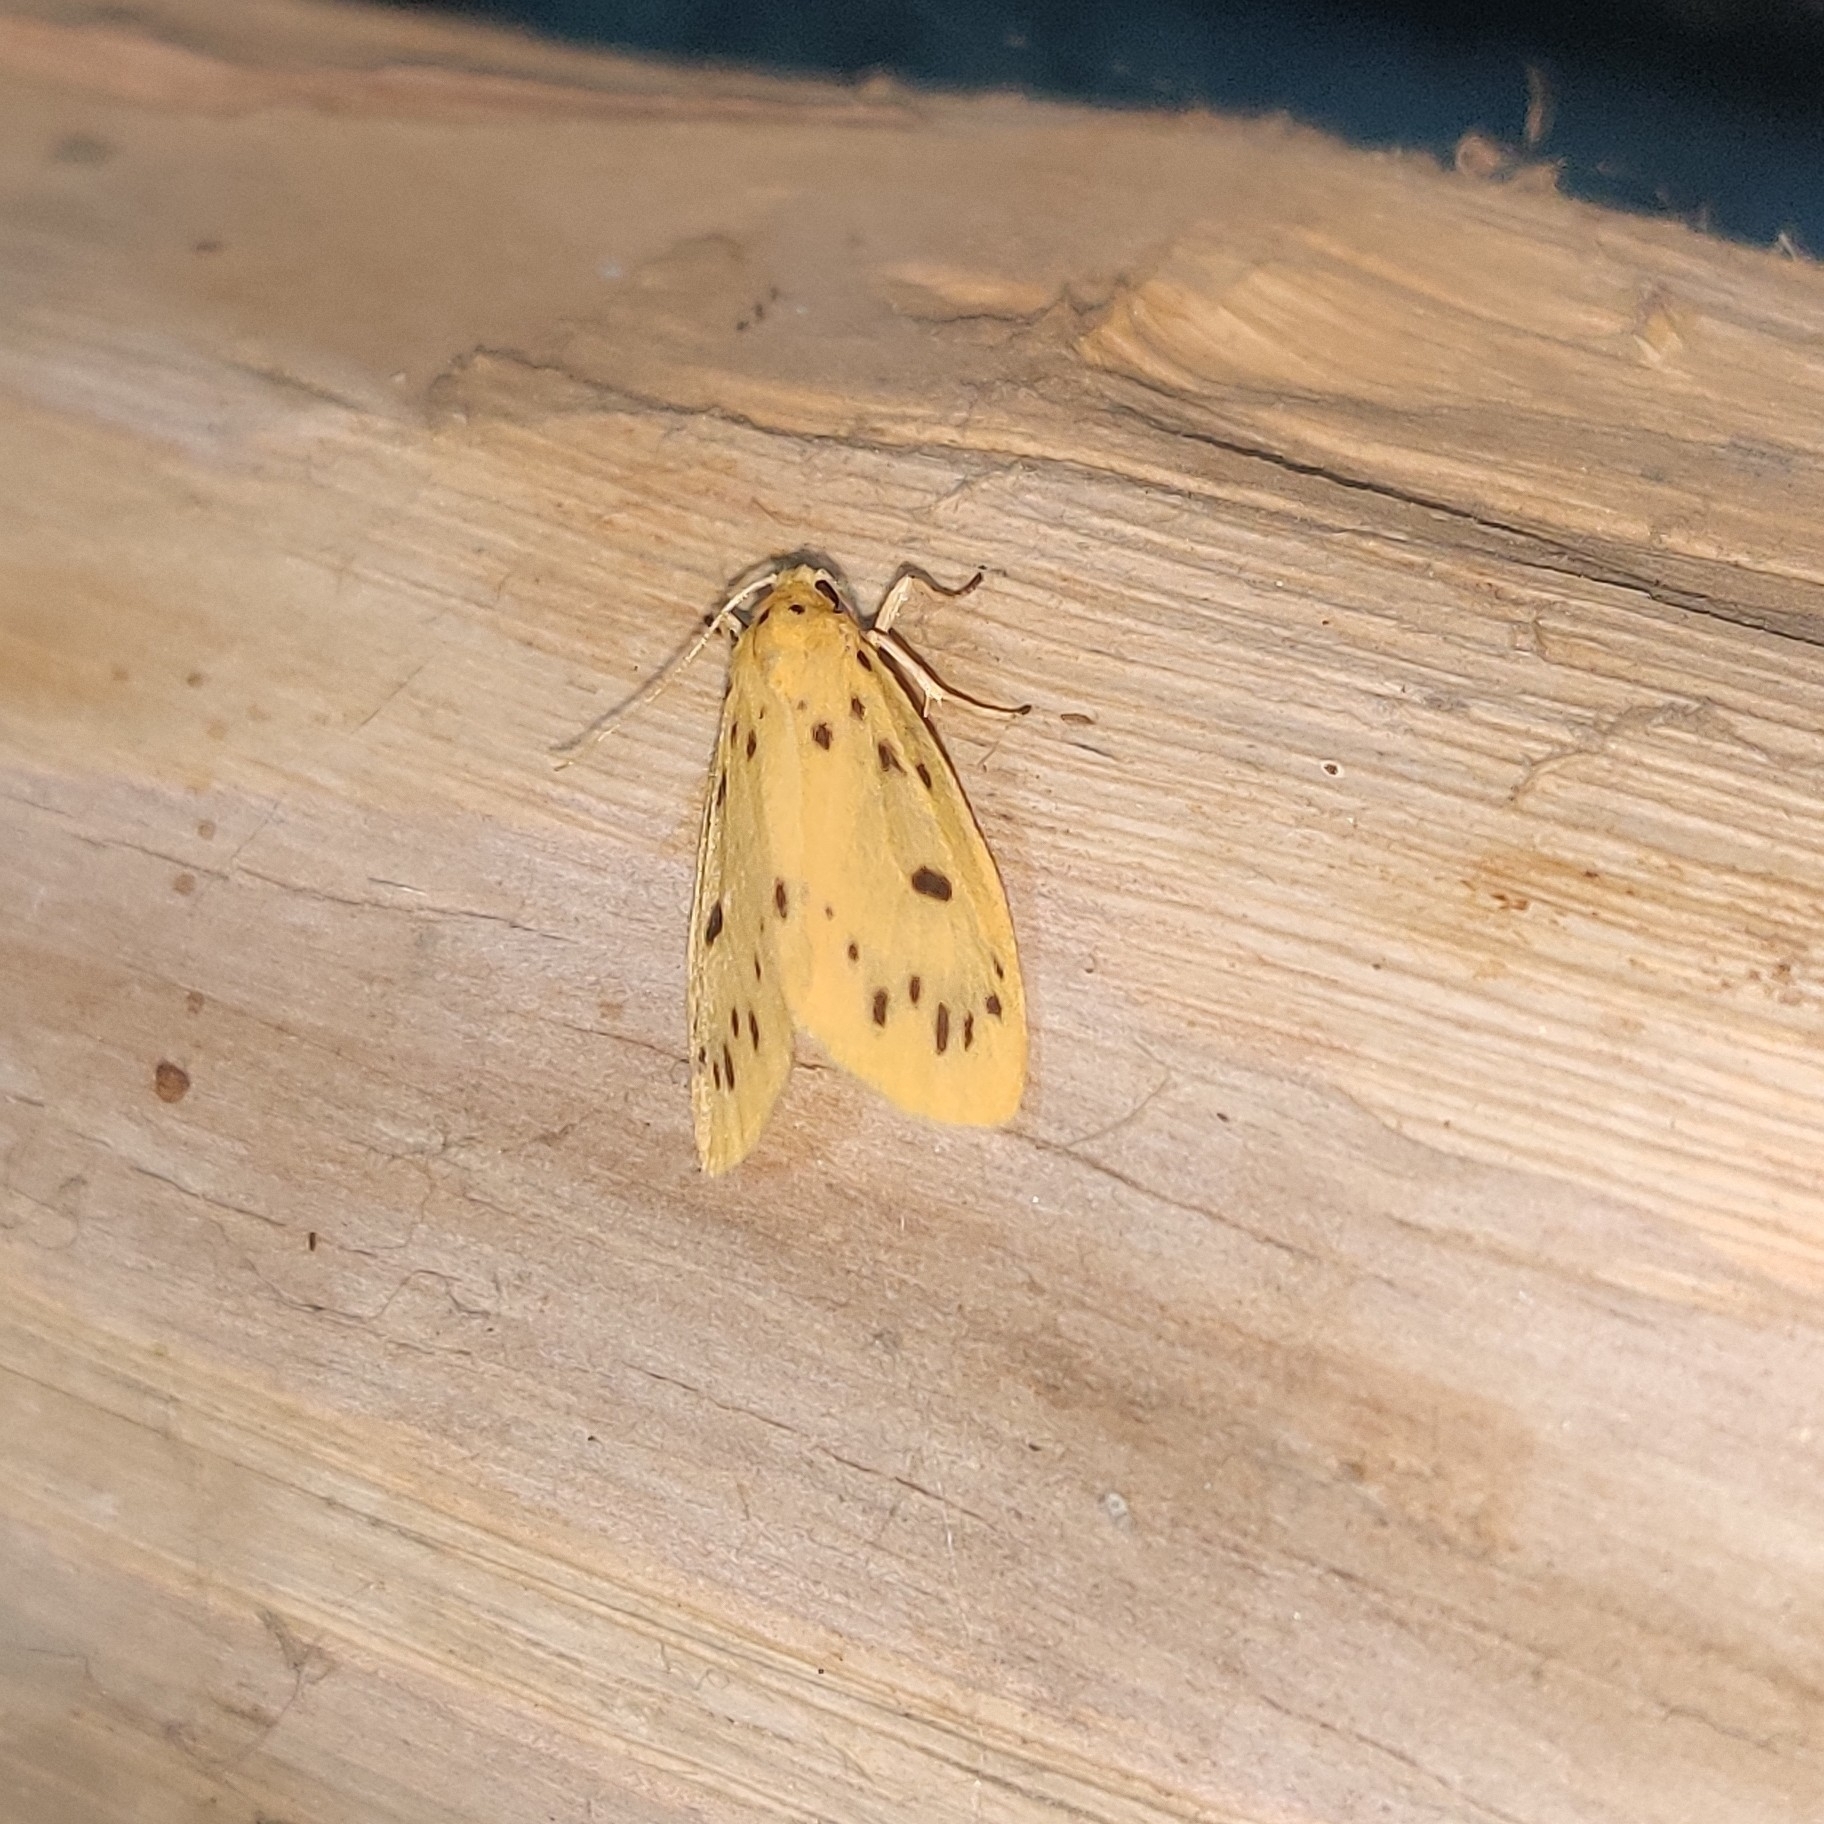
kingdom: Animalia
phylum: Arthropoda
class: Insecta
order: Lepidoptera
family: Erebidae
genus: Miltochrista
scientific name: Miltochrista dharma
